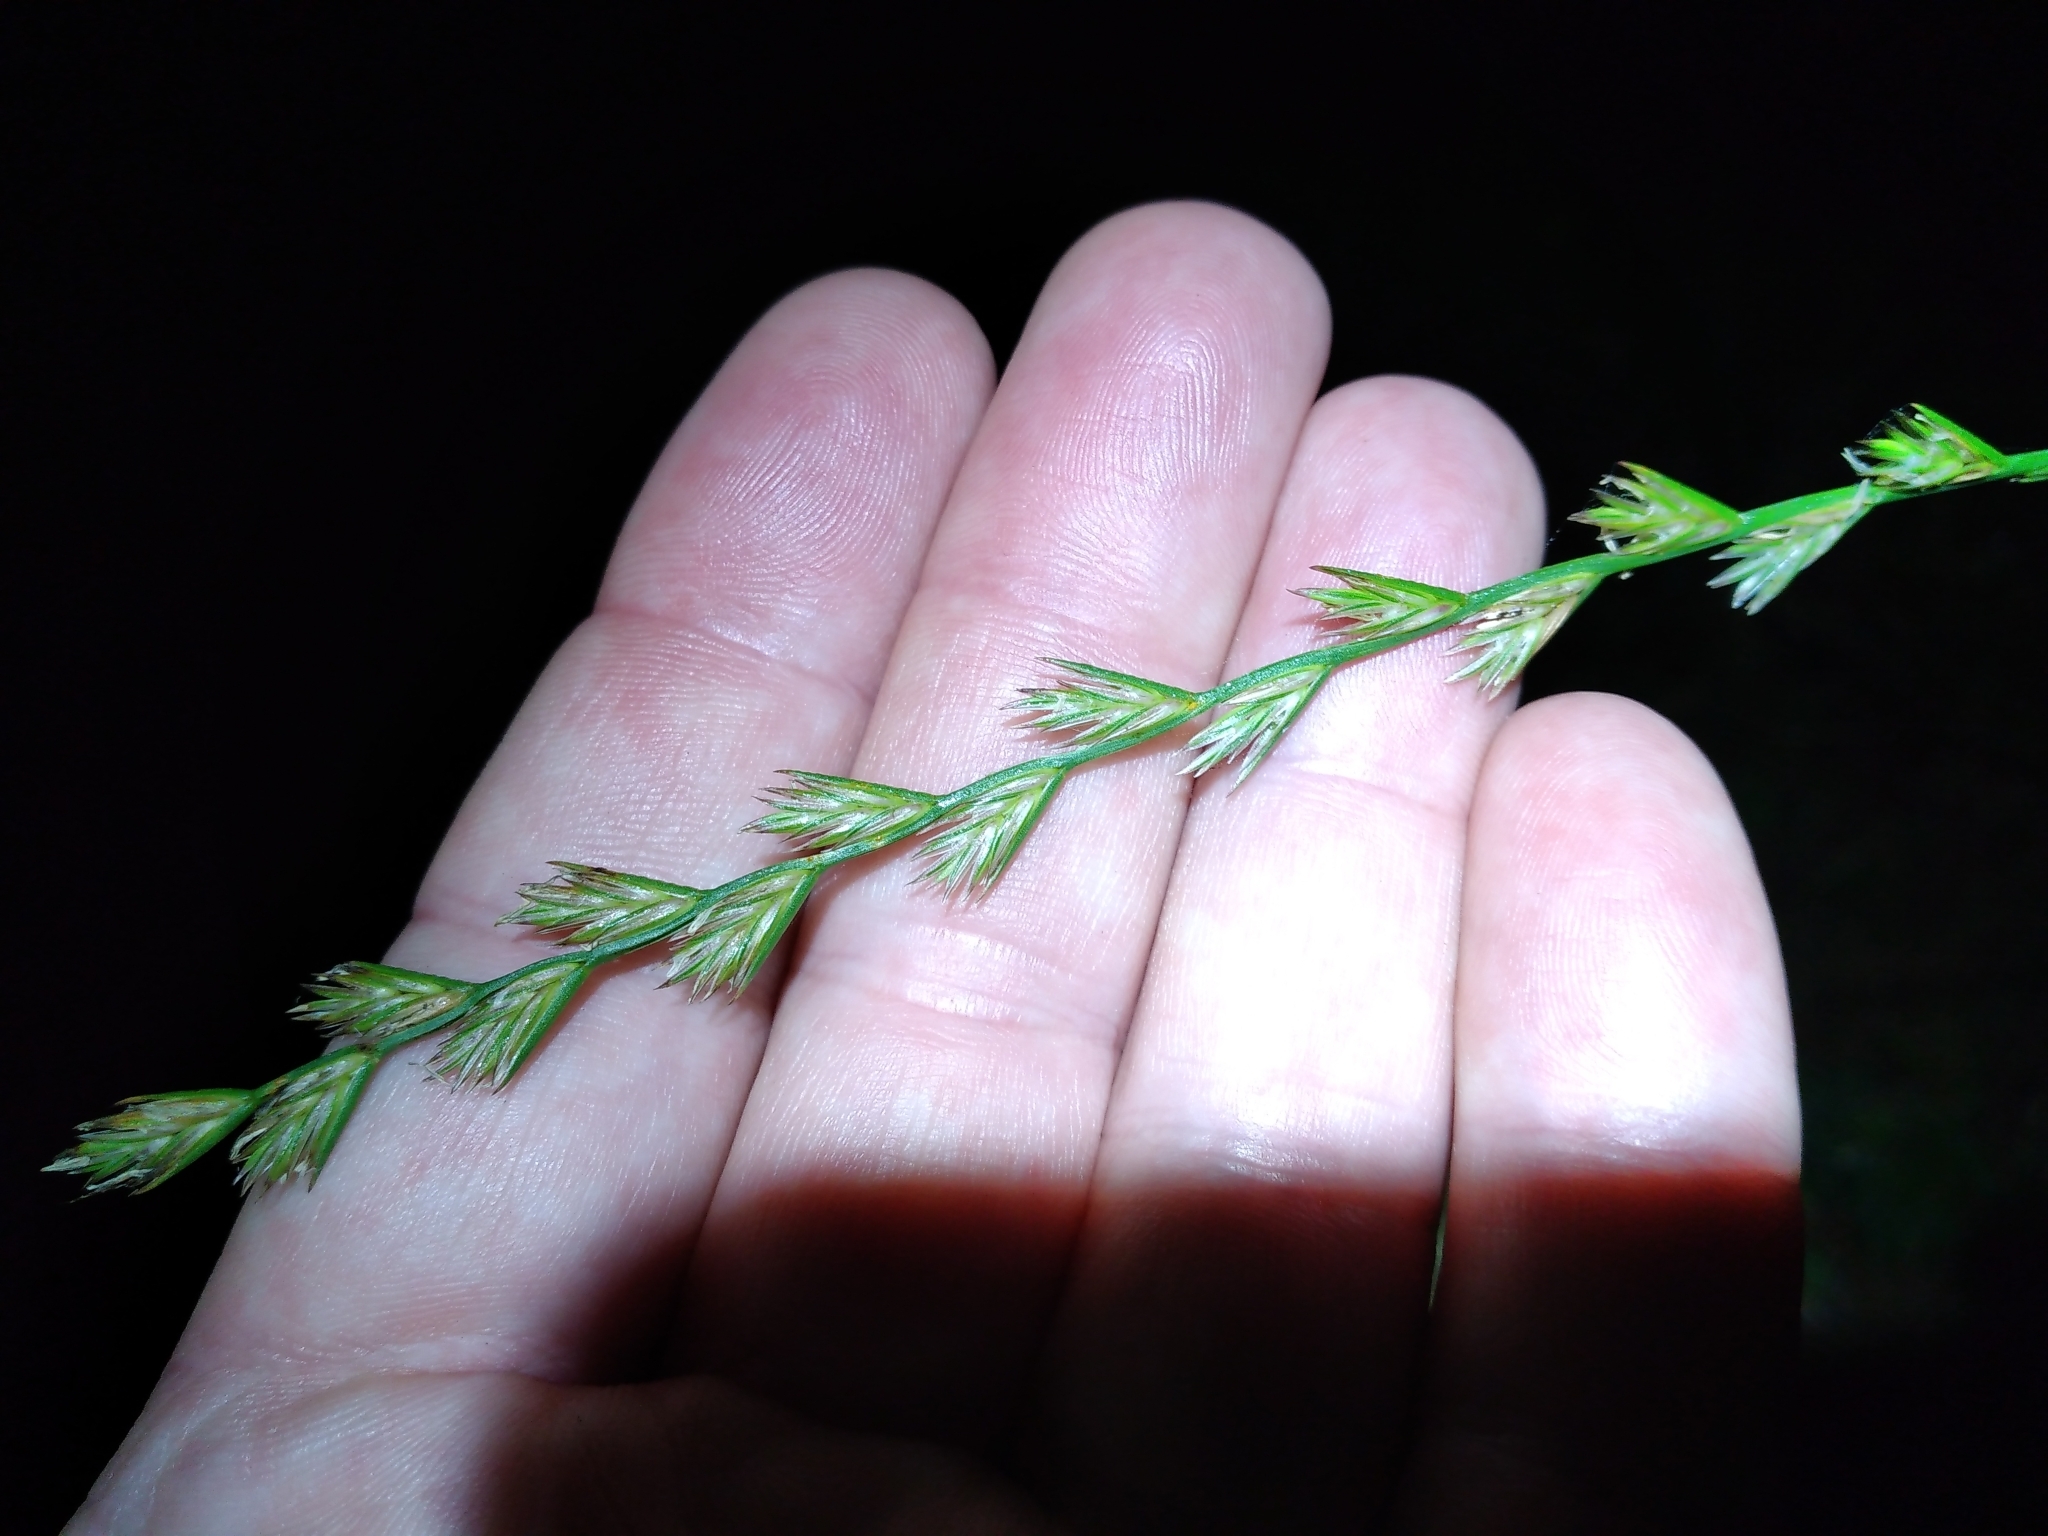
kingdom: Plantae
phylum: Tracheophyta
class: Liliopsida
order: Poales
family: Poaceae
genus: Lolium
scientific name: Lolium perenne
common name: Perennial ryegrass
